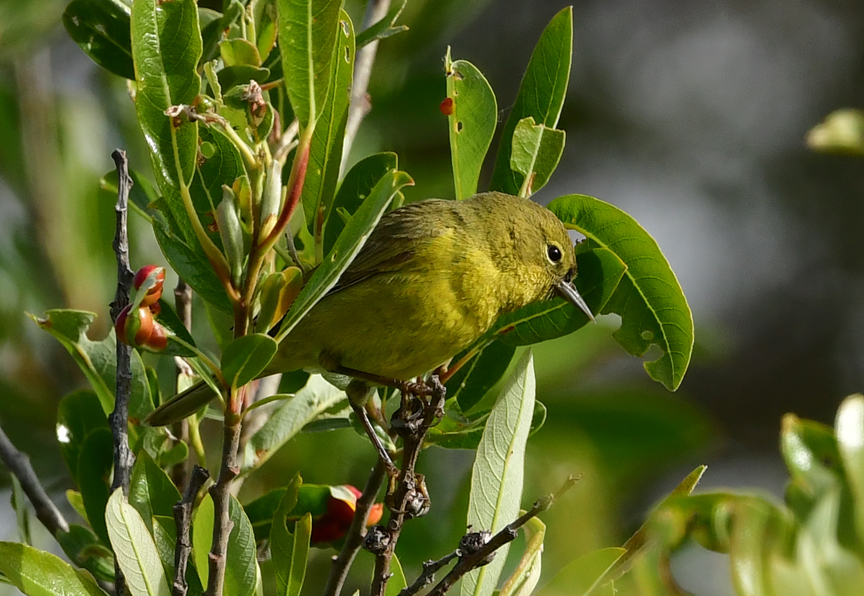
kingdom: Animalia
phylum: Chordata
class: Aves
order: Passeriformes
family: Parulidae
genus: Leiothlypis
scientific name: Leiothlypis celata
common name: Orange-crowned warbler
